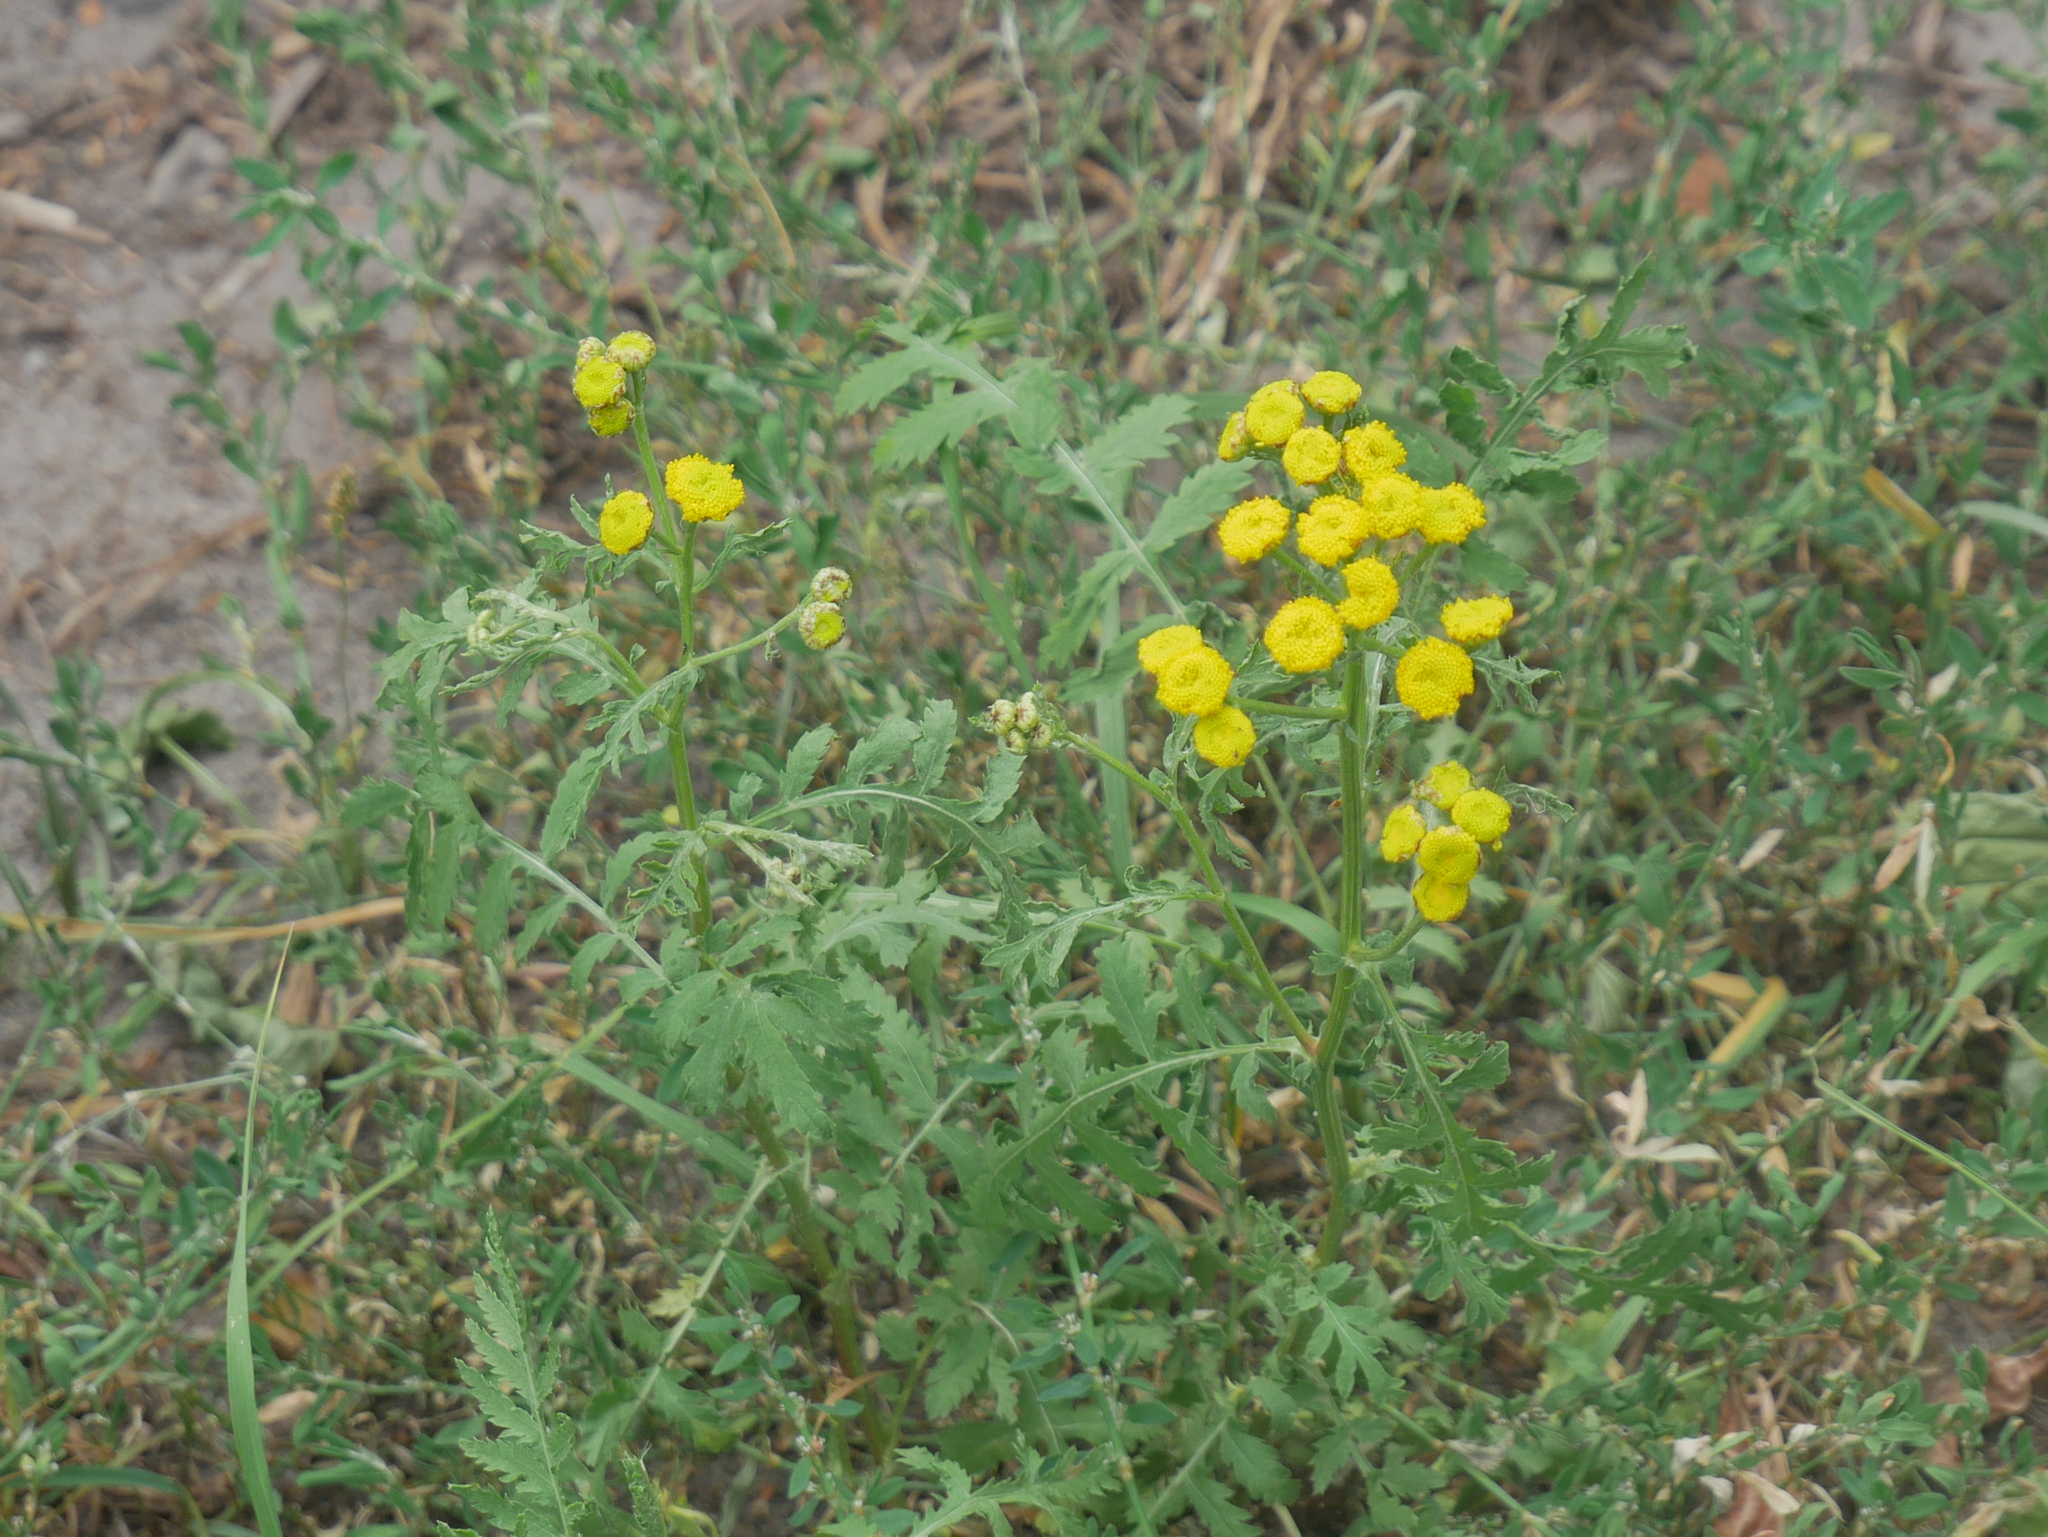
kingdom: Plantae
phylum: Tracheophyta
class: Magnoliopsida
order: Asterales
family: Asteraceae
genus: Tanacetum
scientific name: Tanacetum vulgare
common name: Common tansy
